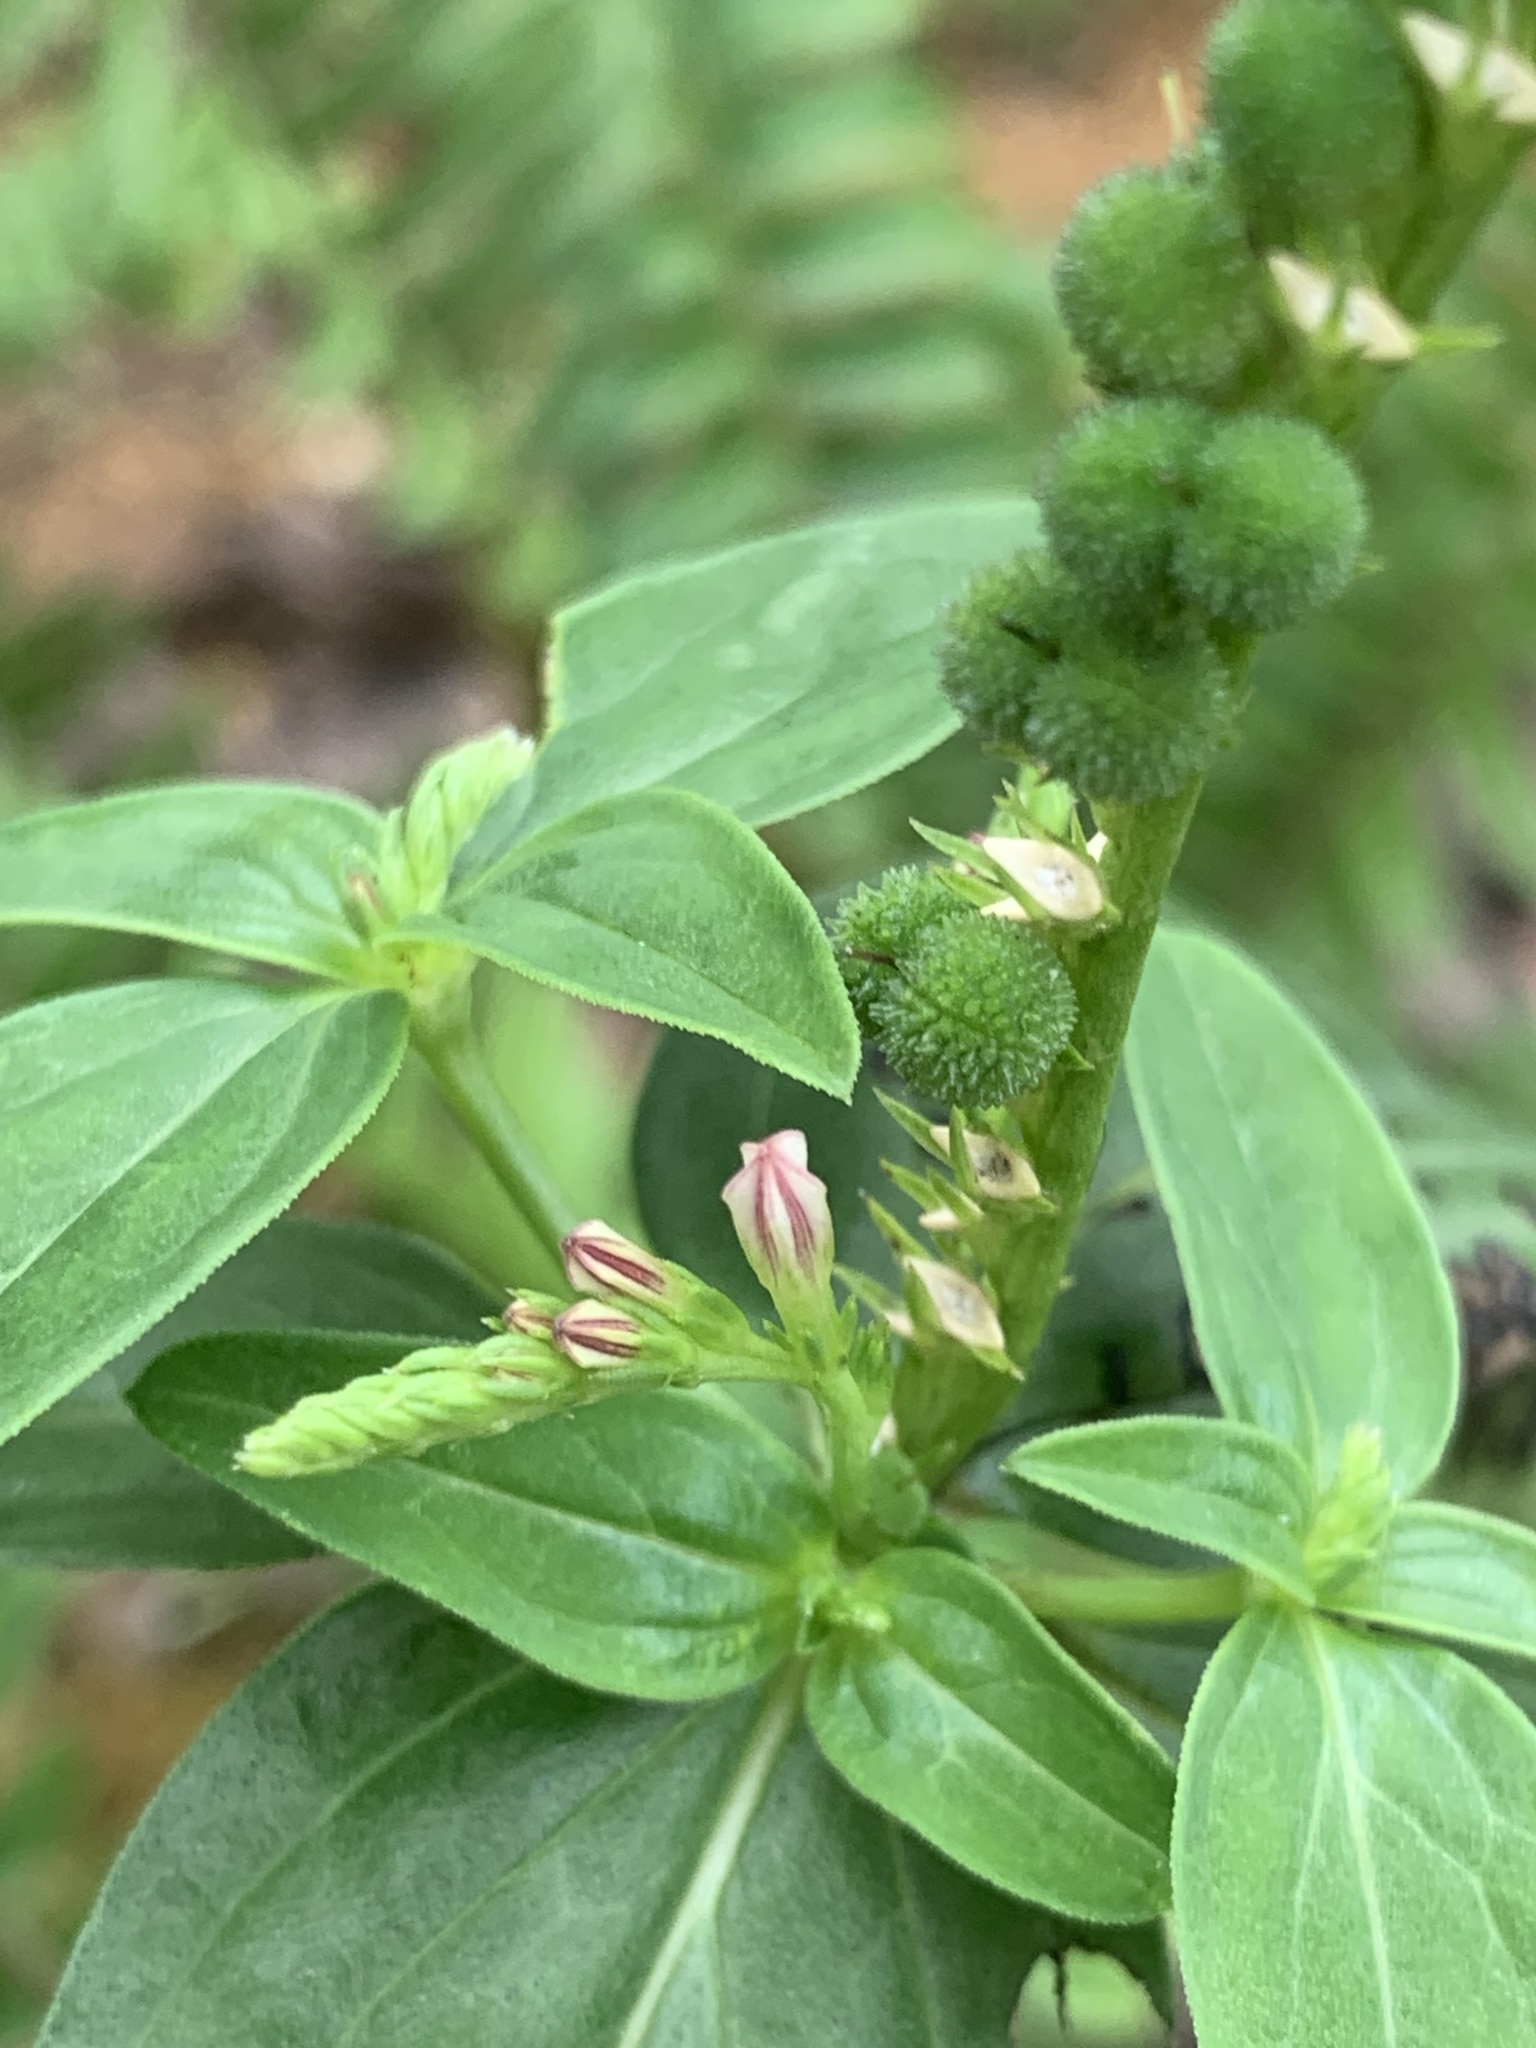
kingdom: Plantae
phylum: Tracheophyta
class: Magnoliopsida
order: Gentianales
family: Loganiaceae
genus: Spigelia
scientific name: Spigelia anthelmia
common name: West indian-pink
